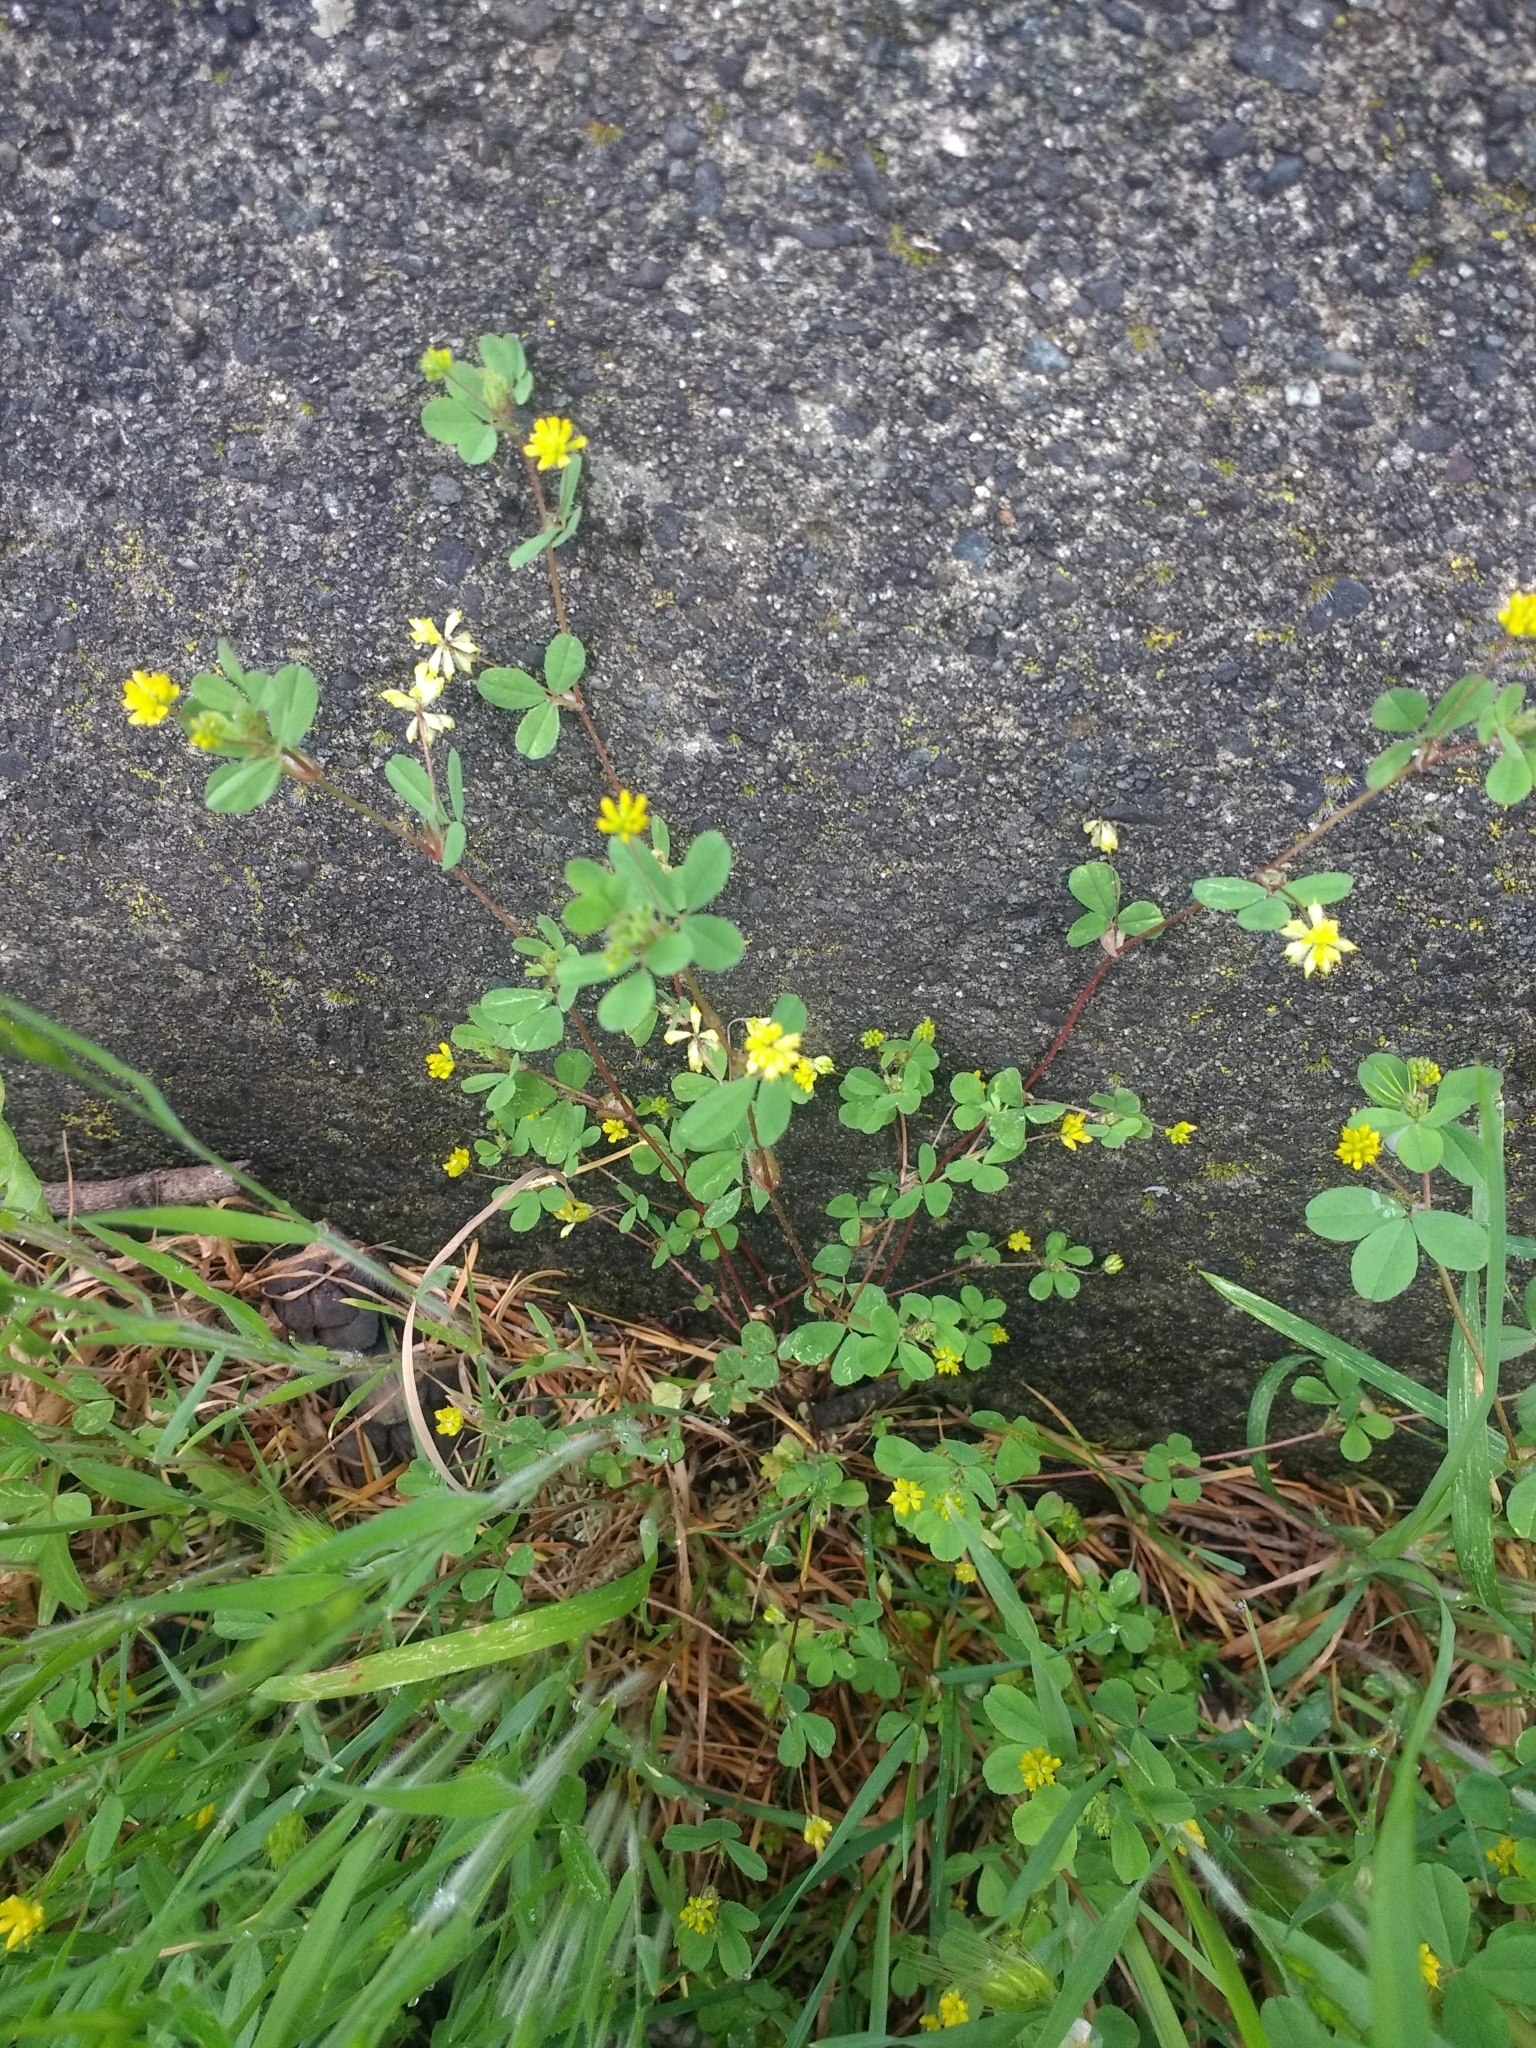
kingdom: Plantae
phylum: Tracheophyta
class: Magnoliopsida
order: Fabales
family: Fabaceae
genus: Trifolium
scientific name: Trifolium dubium
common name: Suckling clover
